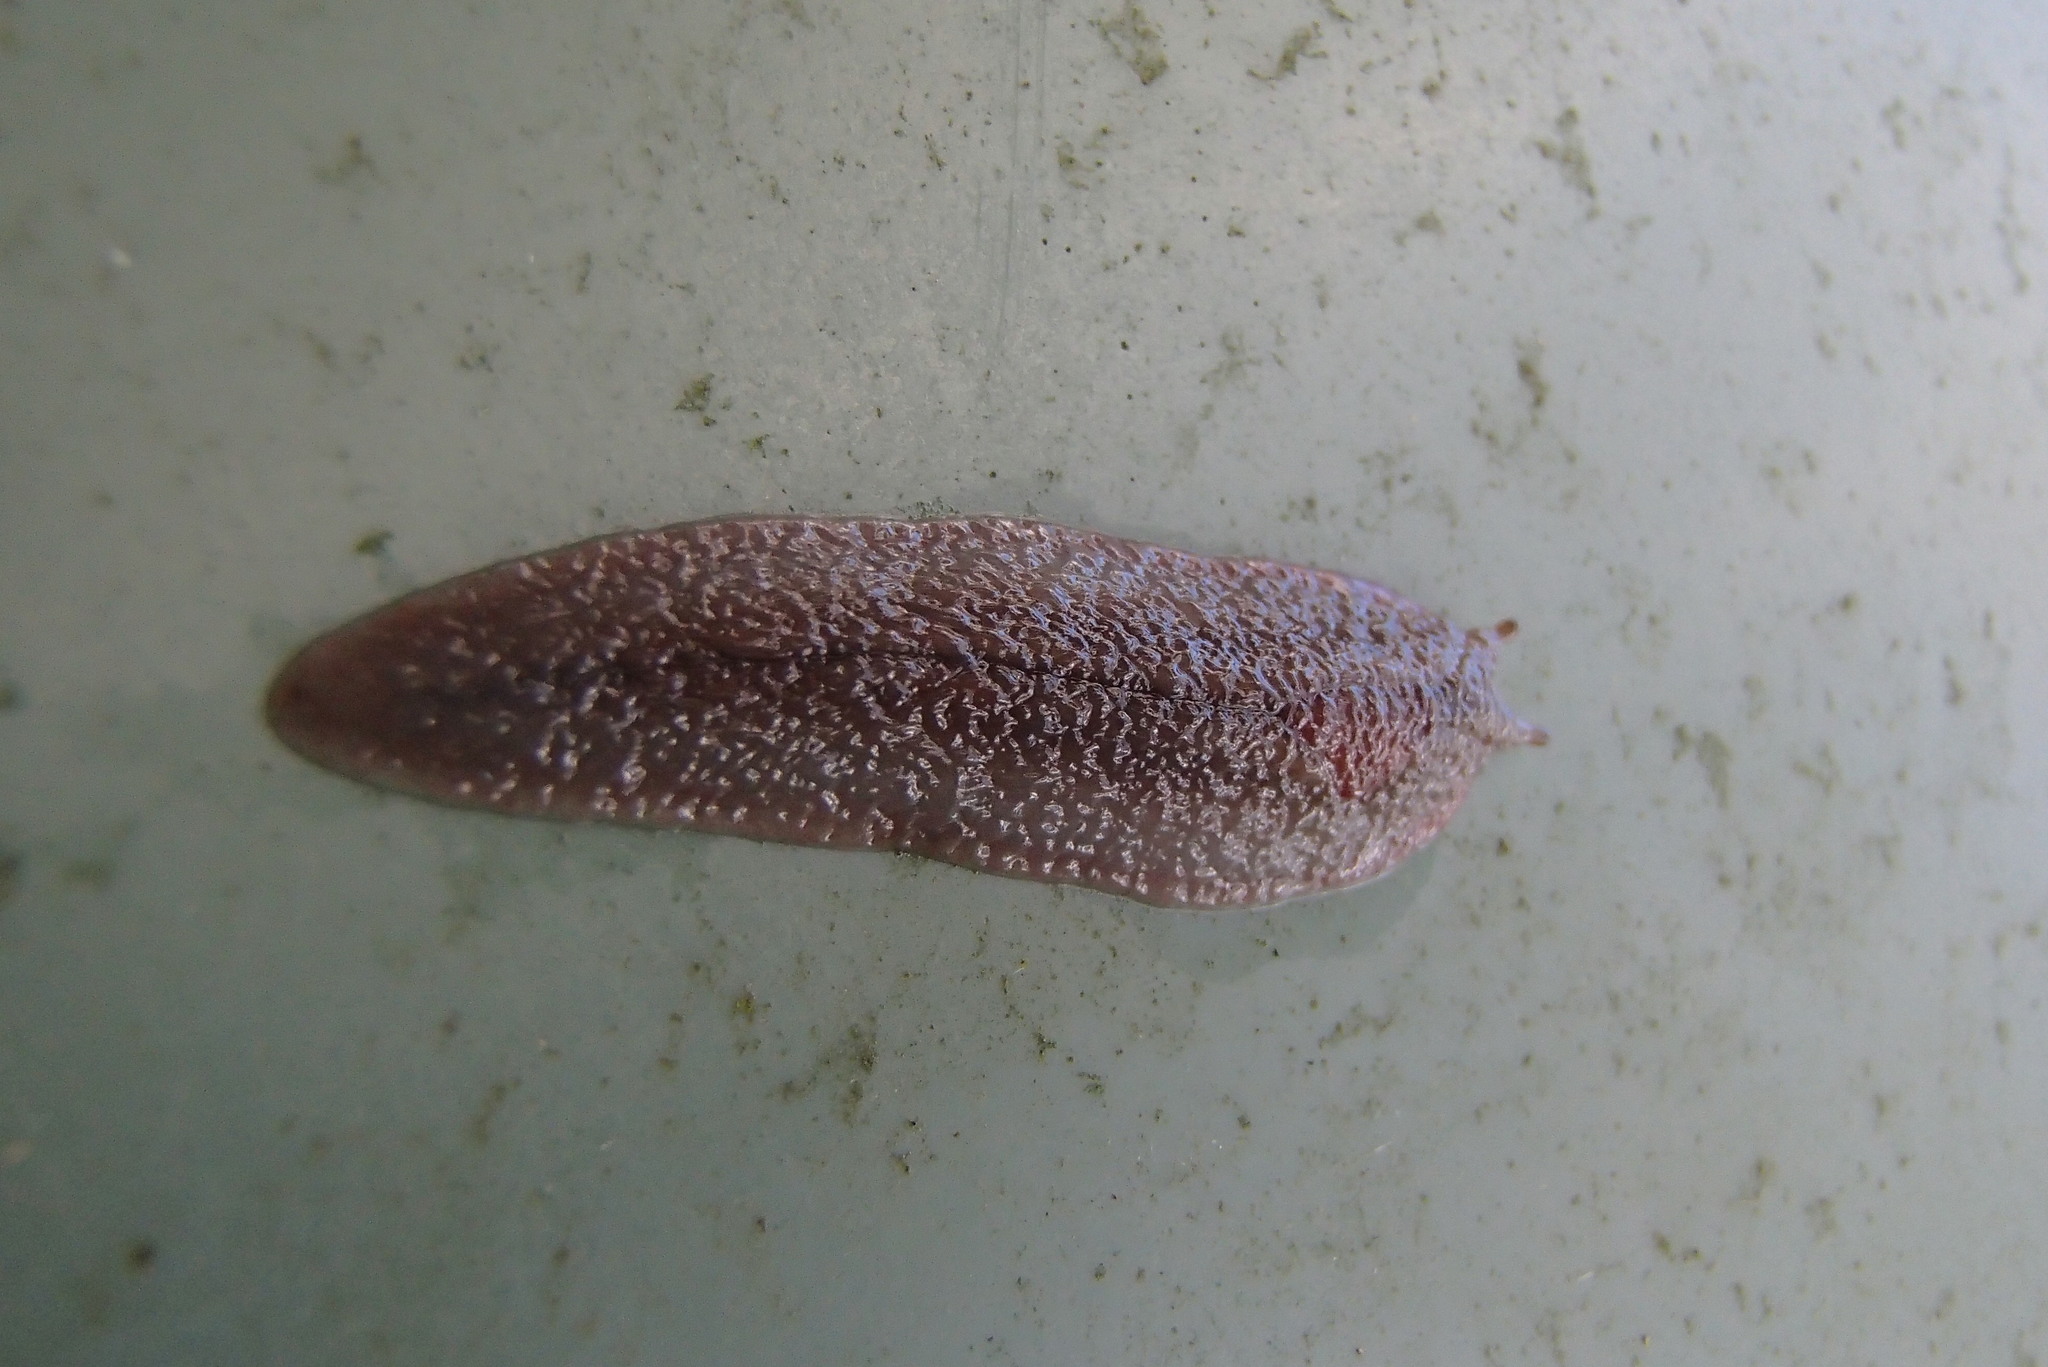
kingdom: Animalia
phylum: Mollusca
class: Gastropoda
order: Stylommatophora
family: Athoracophoridae
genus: Triboniophorus
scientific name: Triboniophorus graeffei
